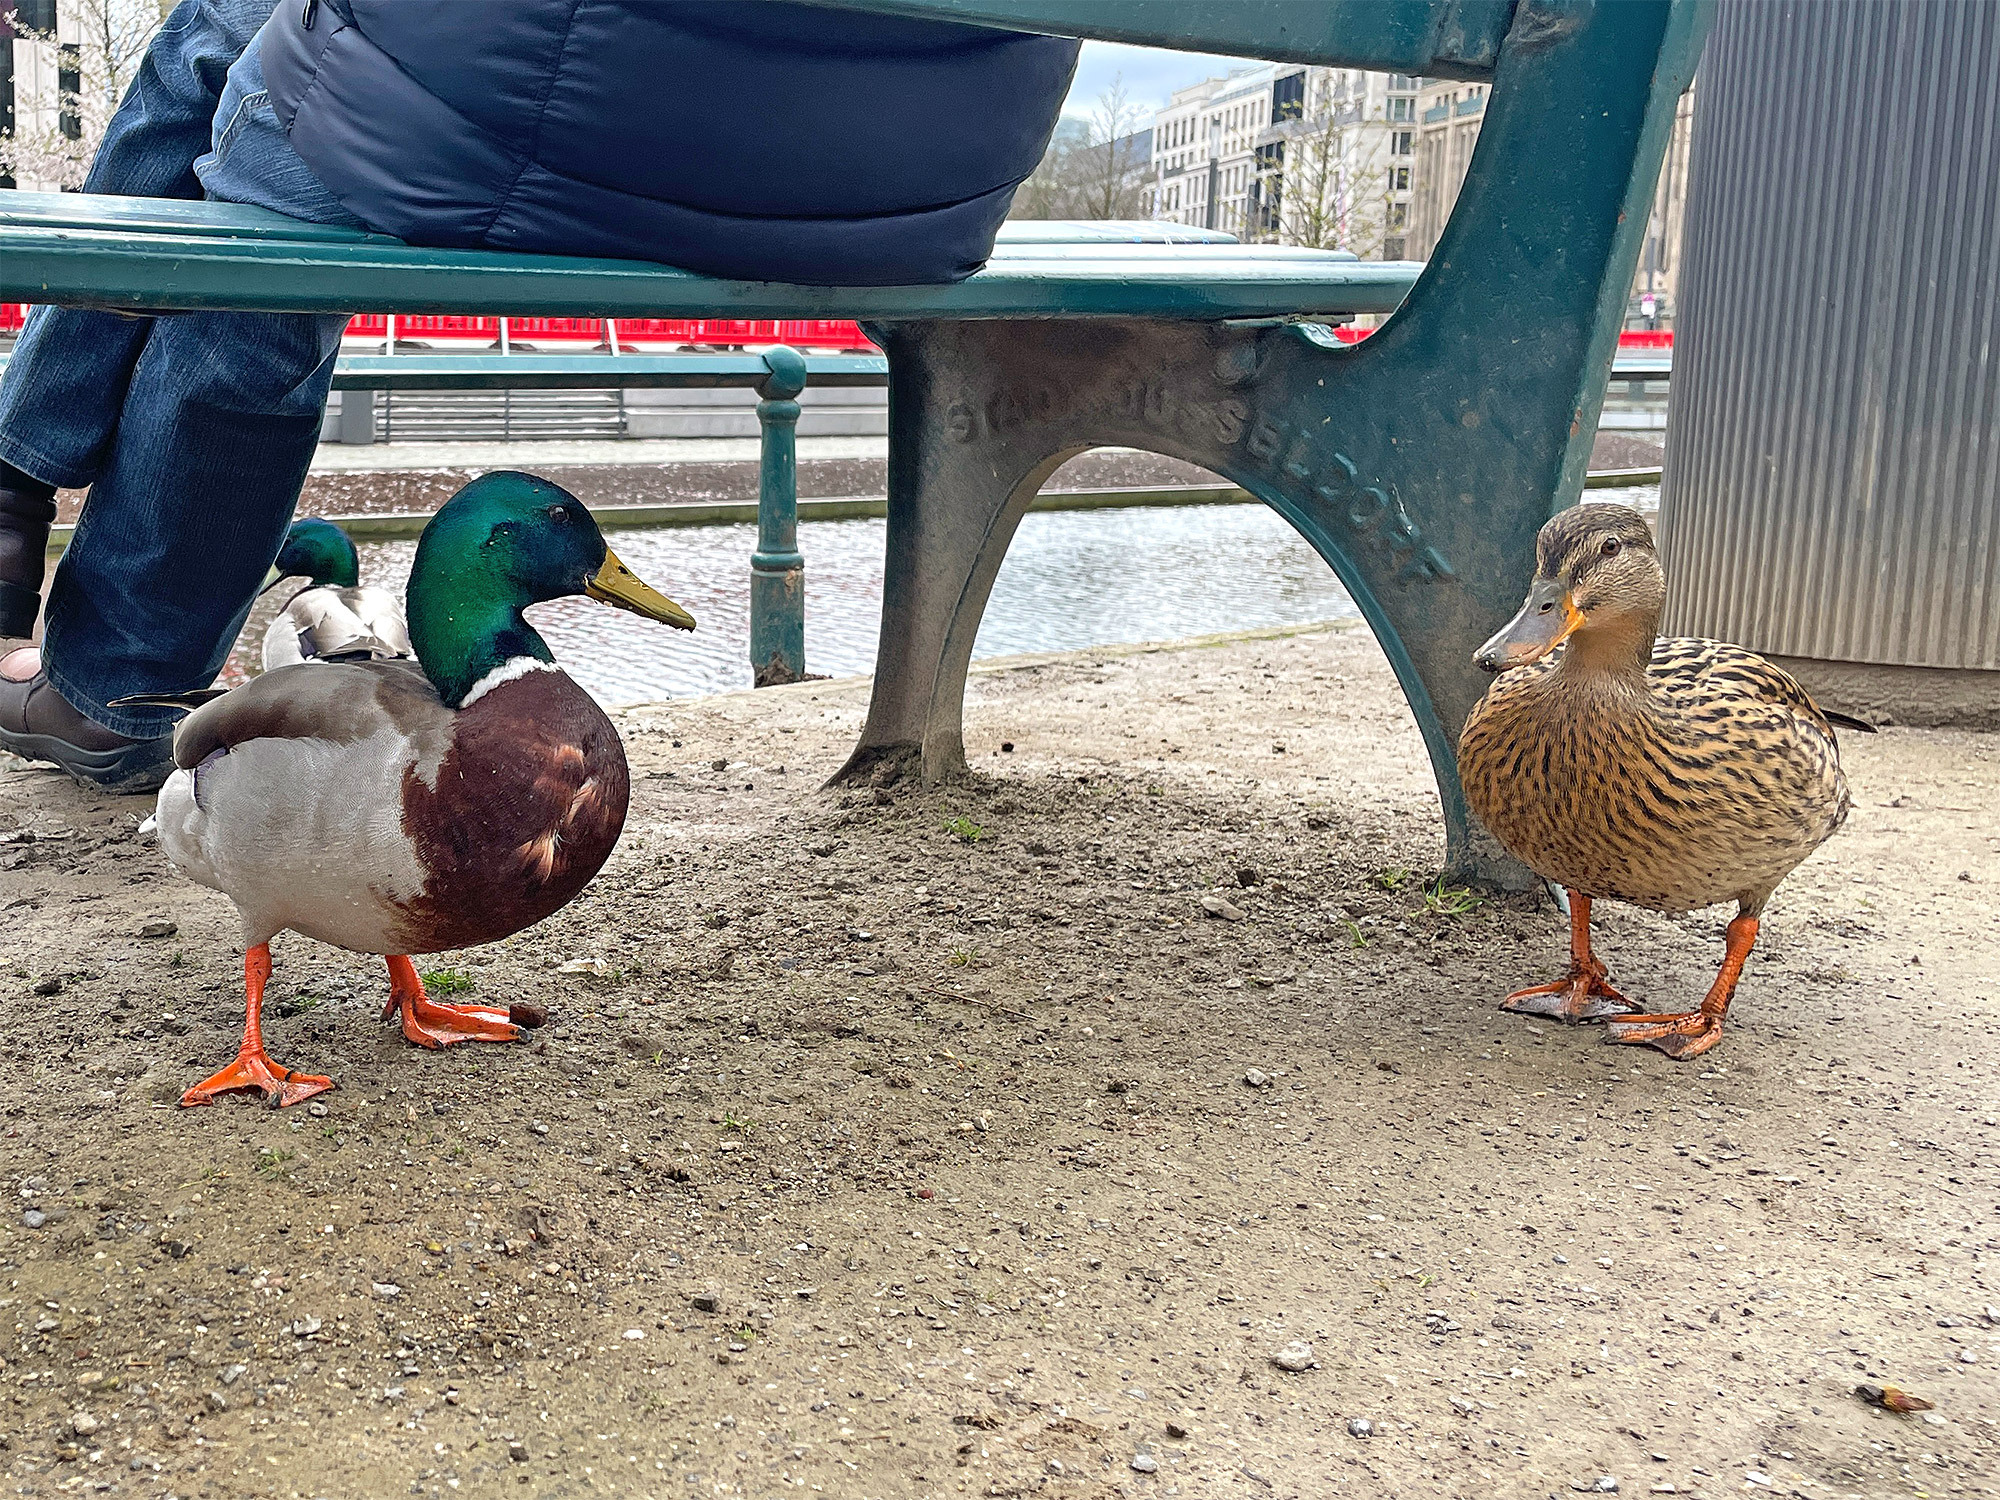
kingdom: Animalia
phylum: Chordata
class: Aves
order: Anseriformes
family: Anatidae
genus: Anas
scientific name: Anas platyrhynchos
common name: Mallard
